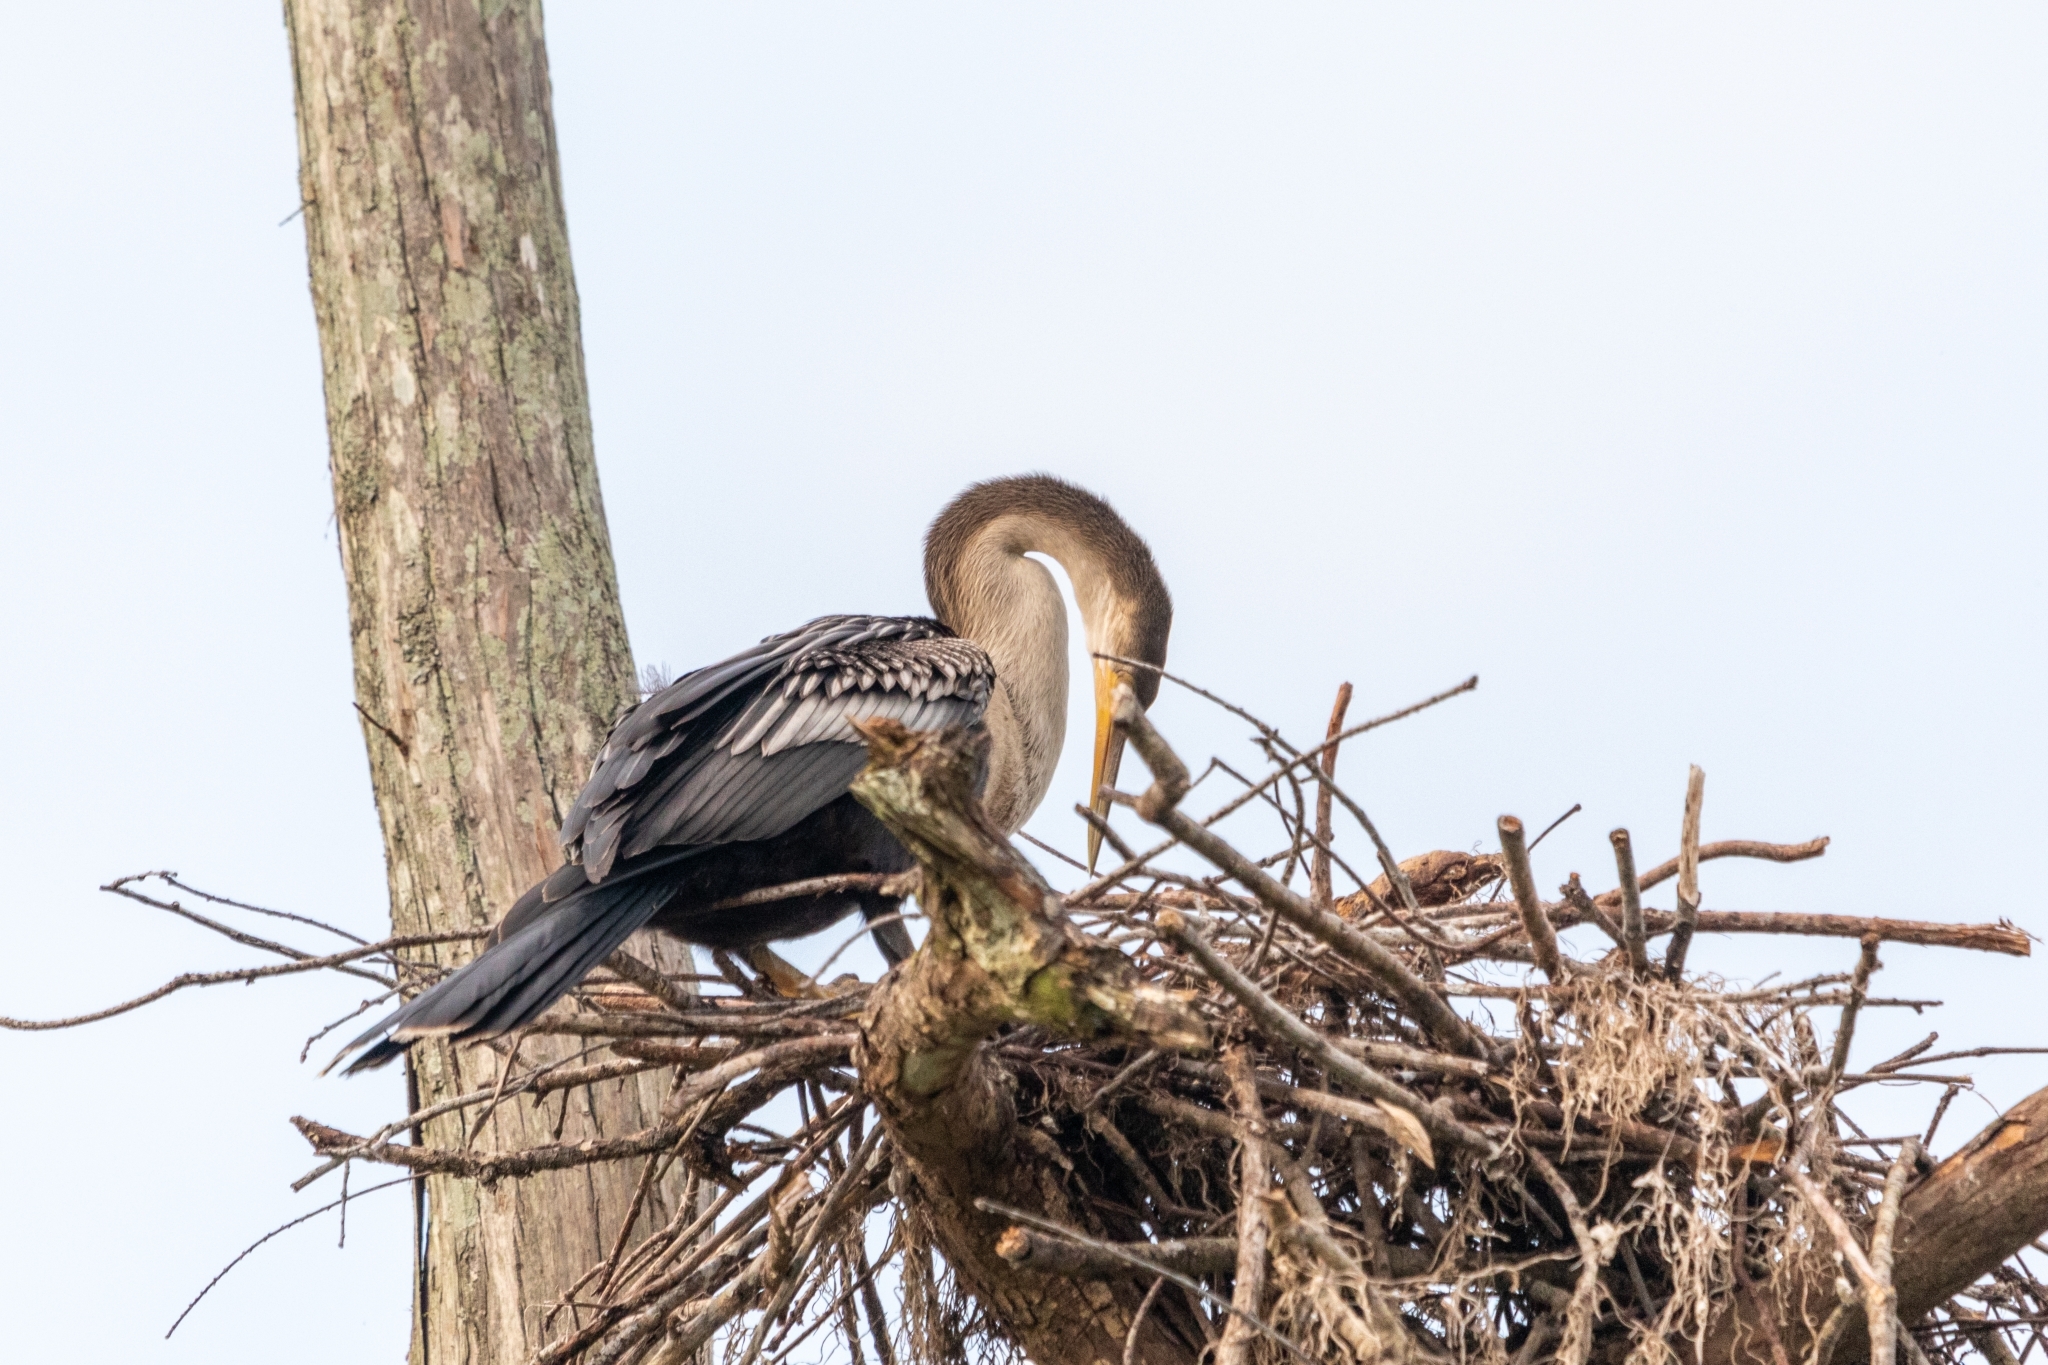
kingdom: Animalia
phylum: Chordata
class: Aves
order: Suliformes
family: Anhingidae
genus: Anhinga
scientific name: Anhinga anhinga
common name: Anhinga
